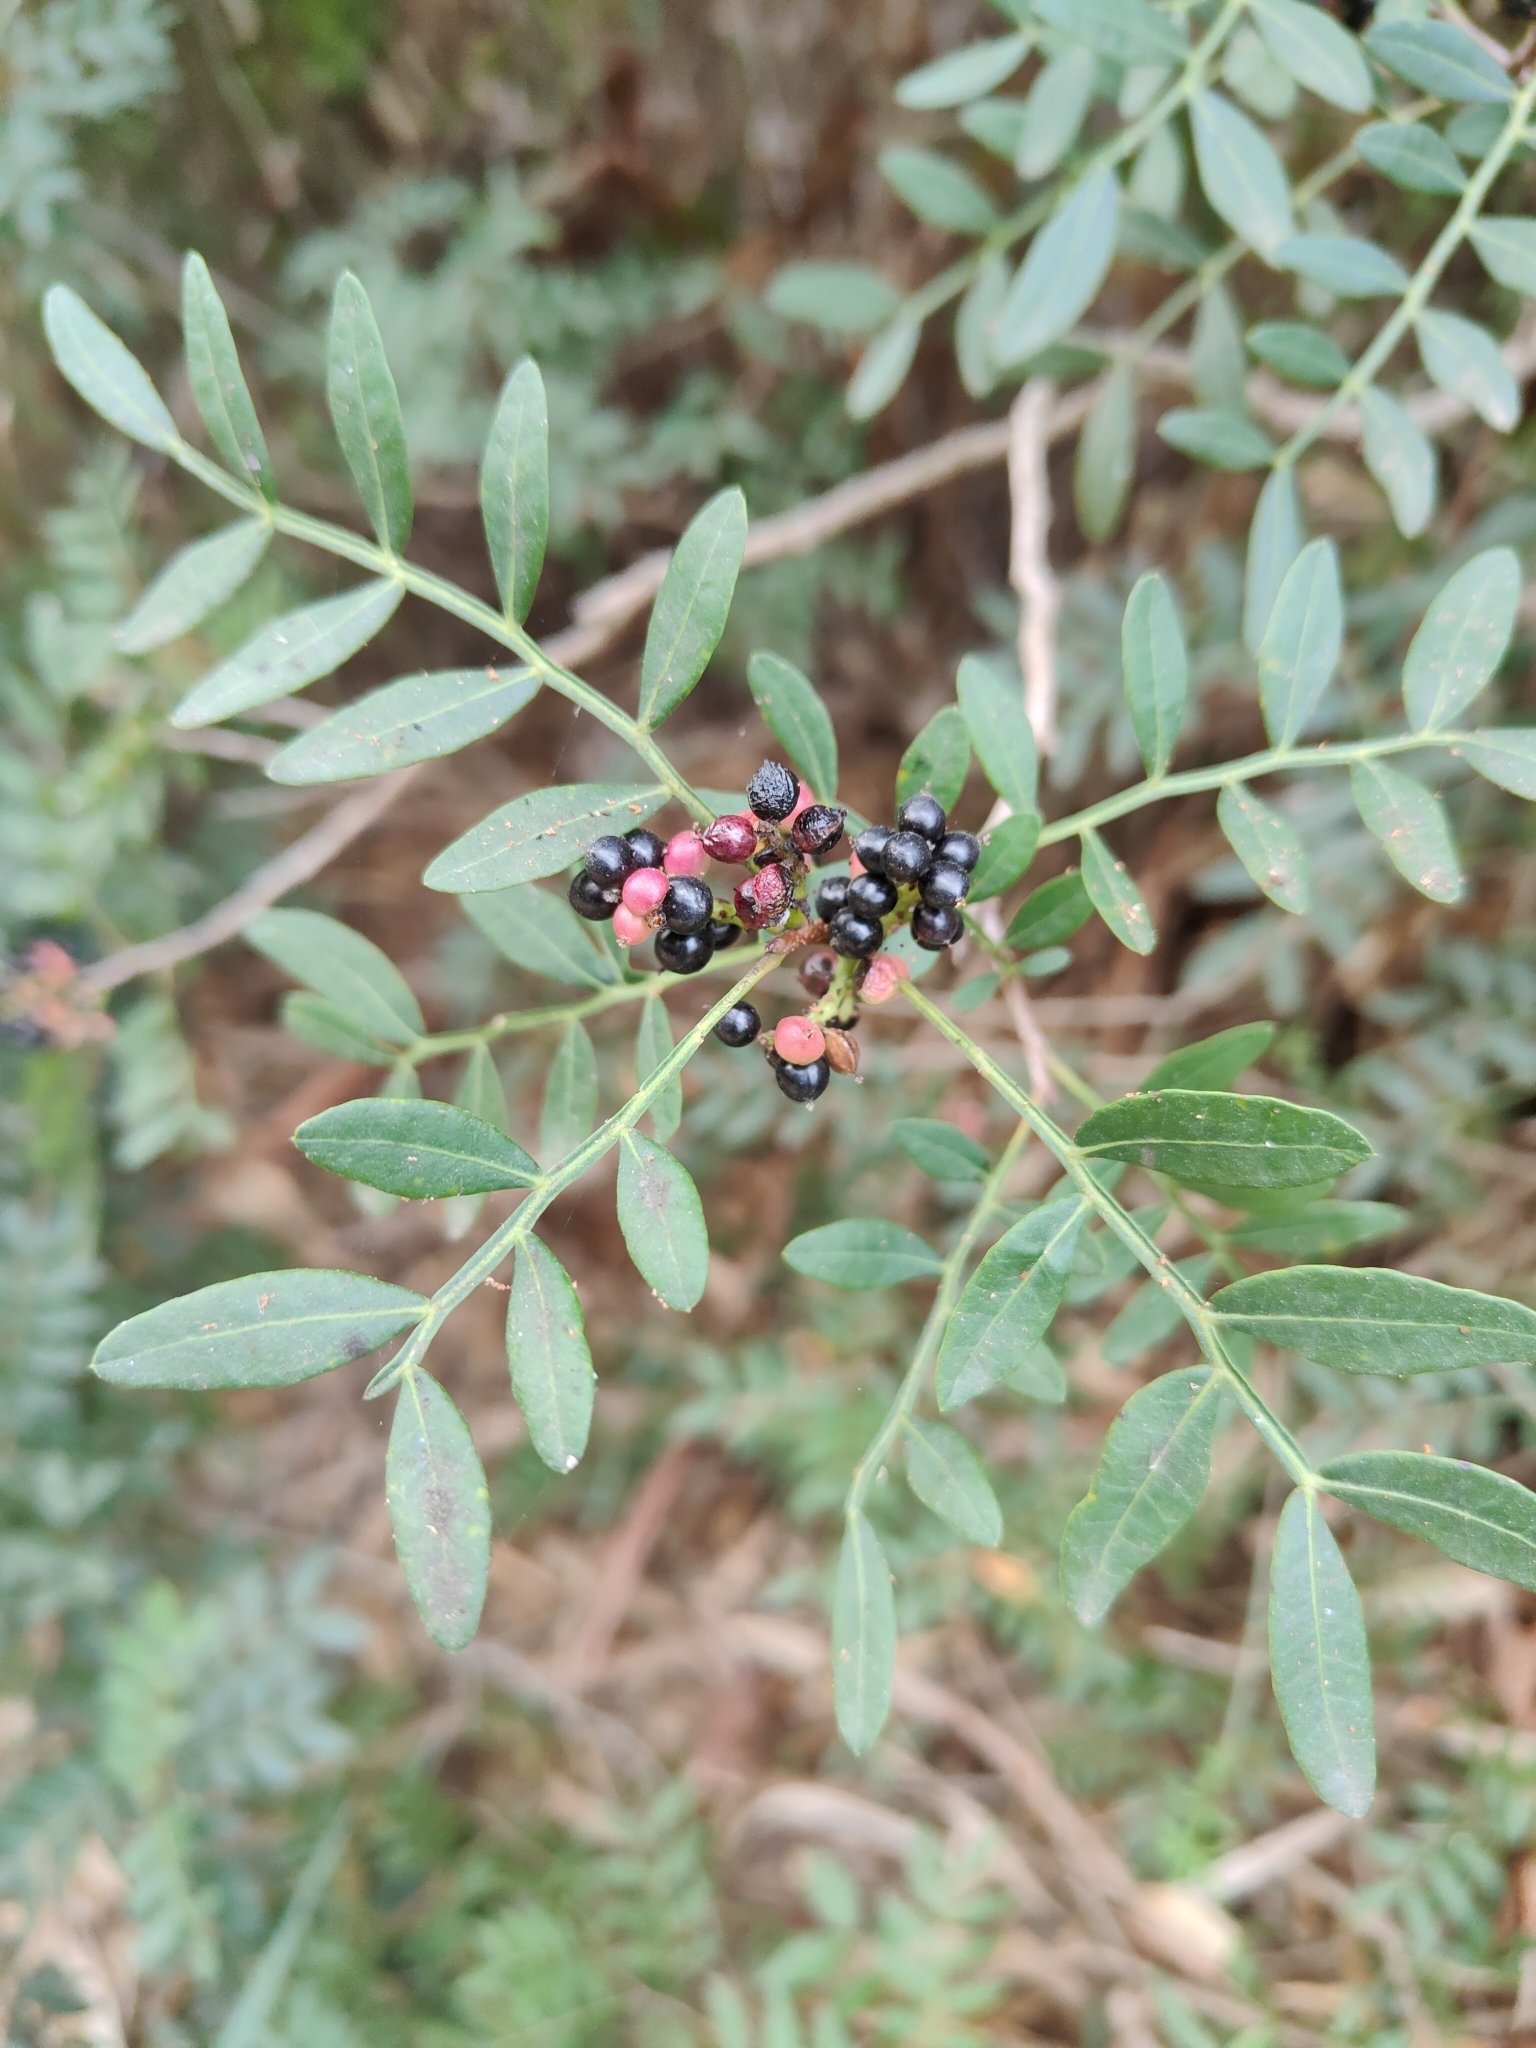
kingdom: Plantae
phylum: Tracheophyta
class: Magnoliopsida
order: Sapindales
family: Anacardiaceae
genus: Pistacia
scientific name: Pistacia lentiscus
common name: Lentisk
